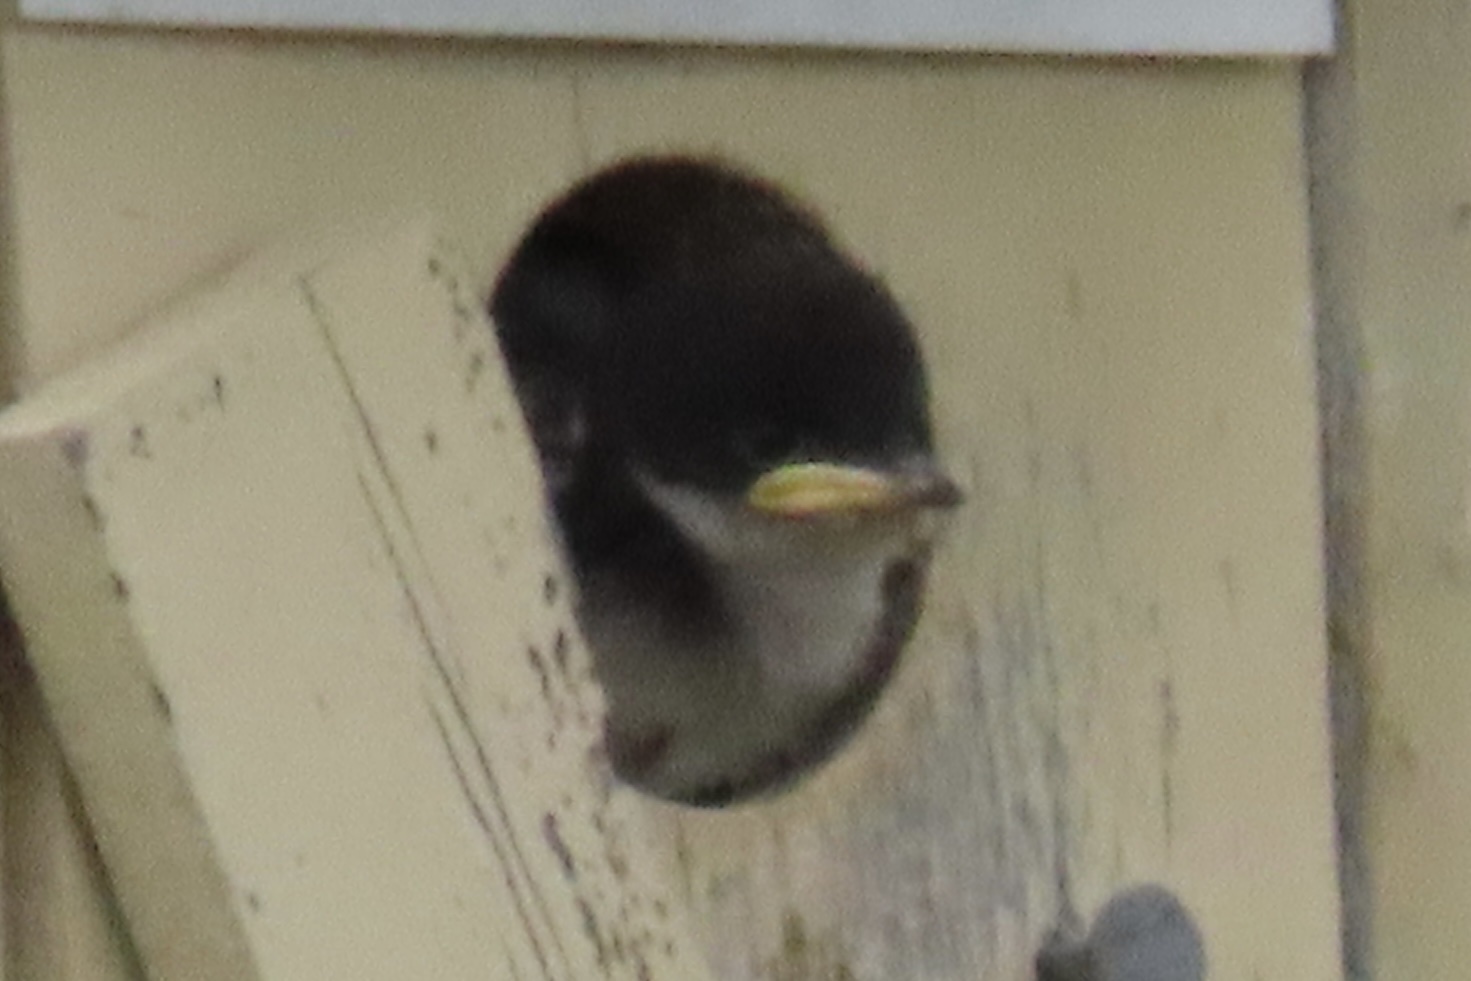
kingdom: Animalia
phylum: Chordata
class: Aves
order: Passeriformes
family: Hirundinidae
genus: Tachycineta
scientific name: Tachycineta bicolor
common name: Tree swallow
